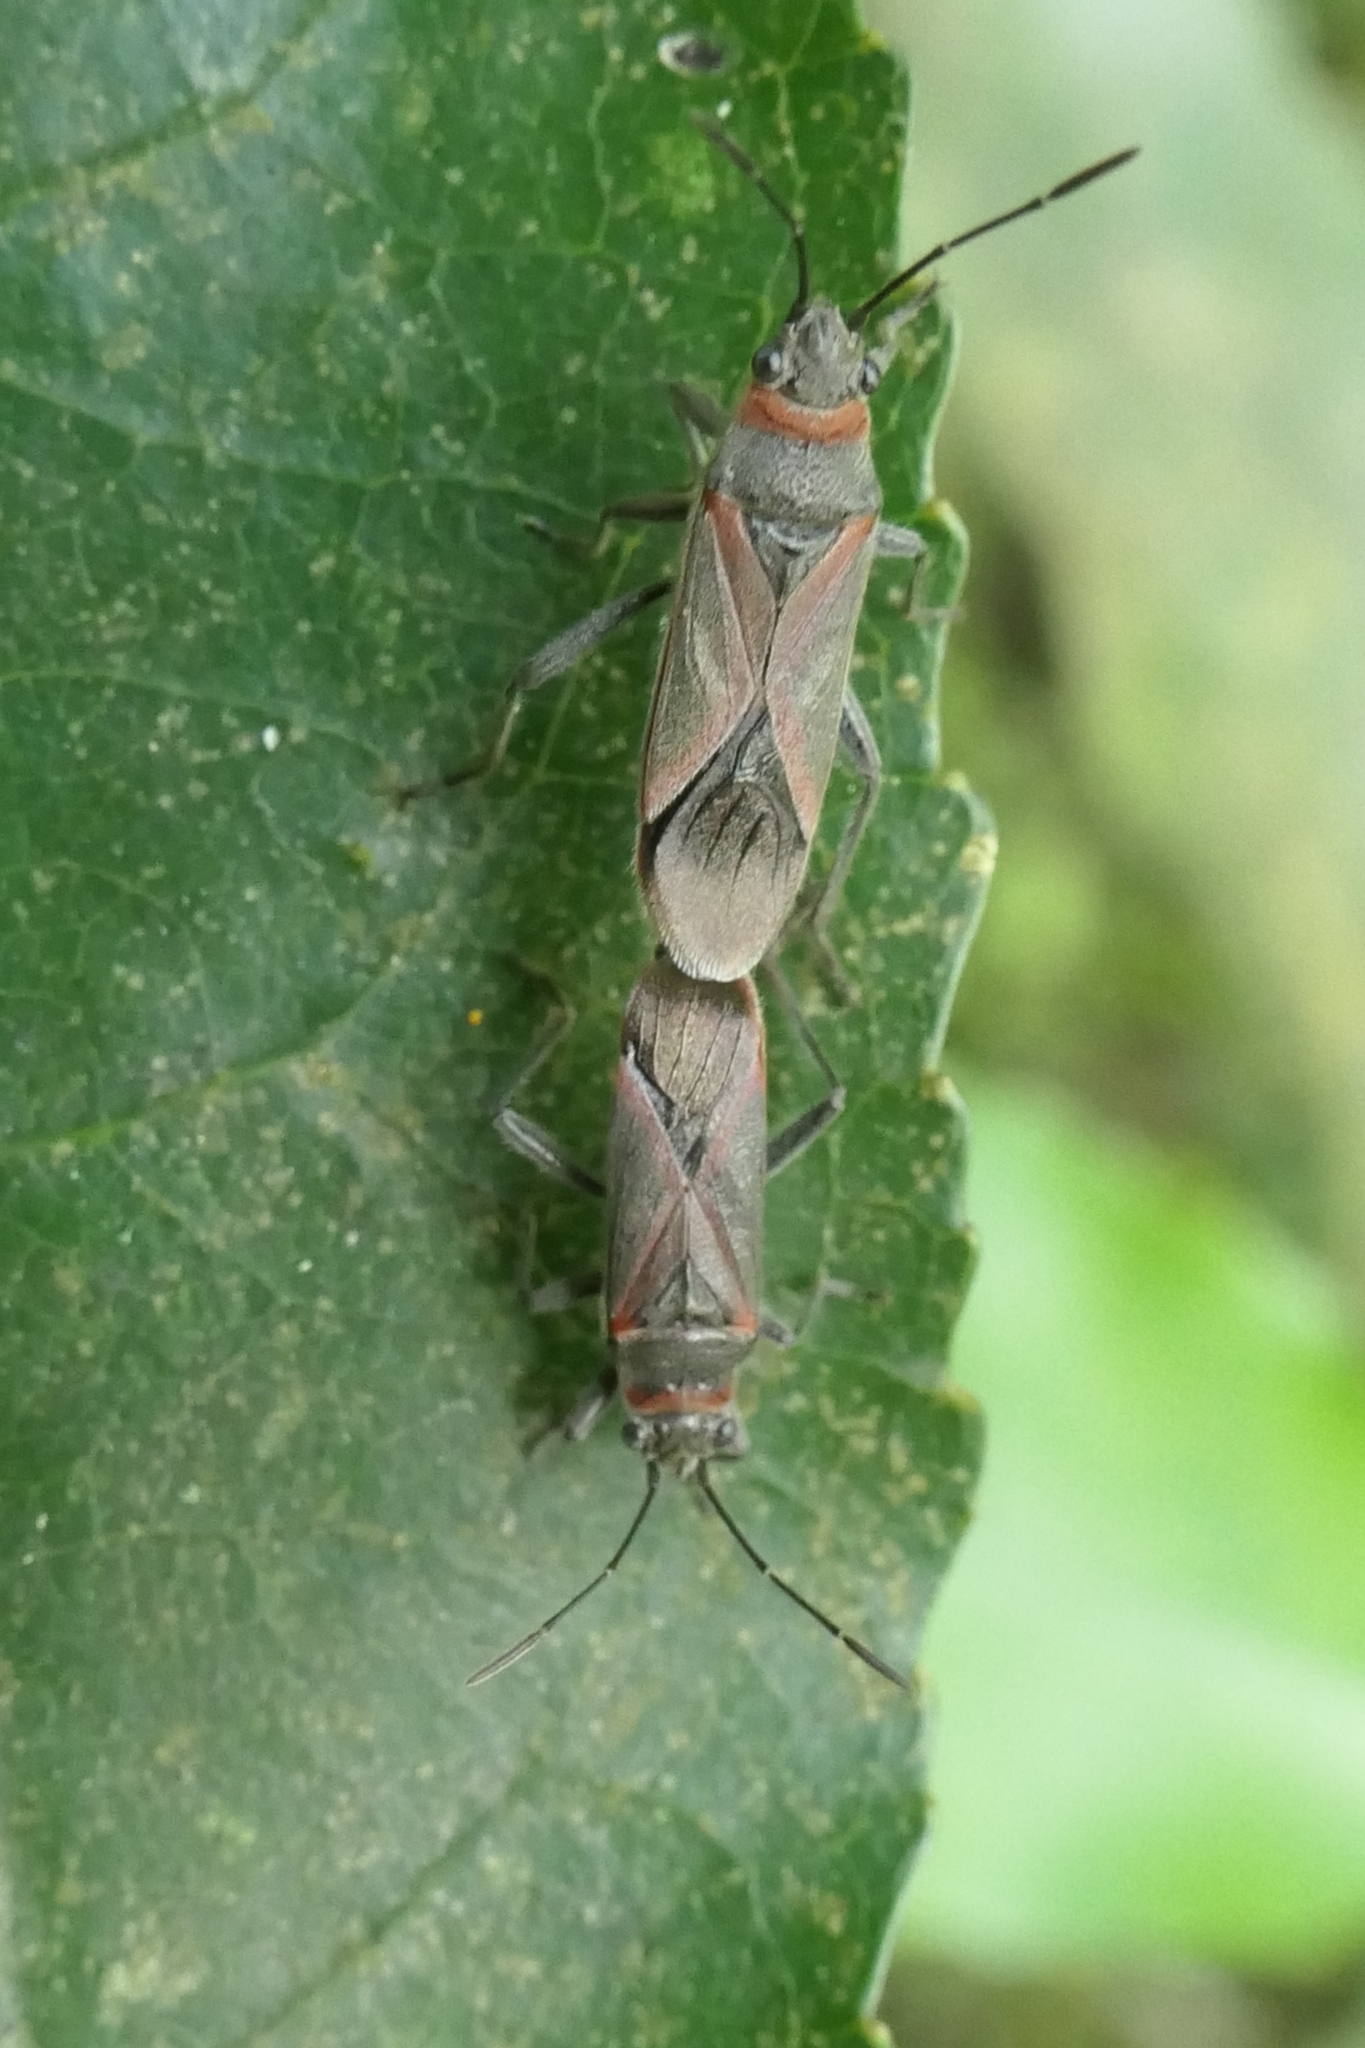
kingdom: Animalia
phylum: Arthropoda
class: Insecta
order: Hemiptera
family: Lygaeidae
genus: Arocatus
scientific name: Arocatus rusticus
